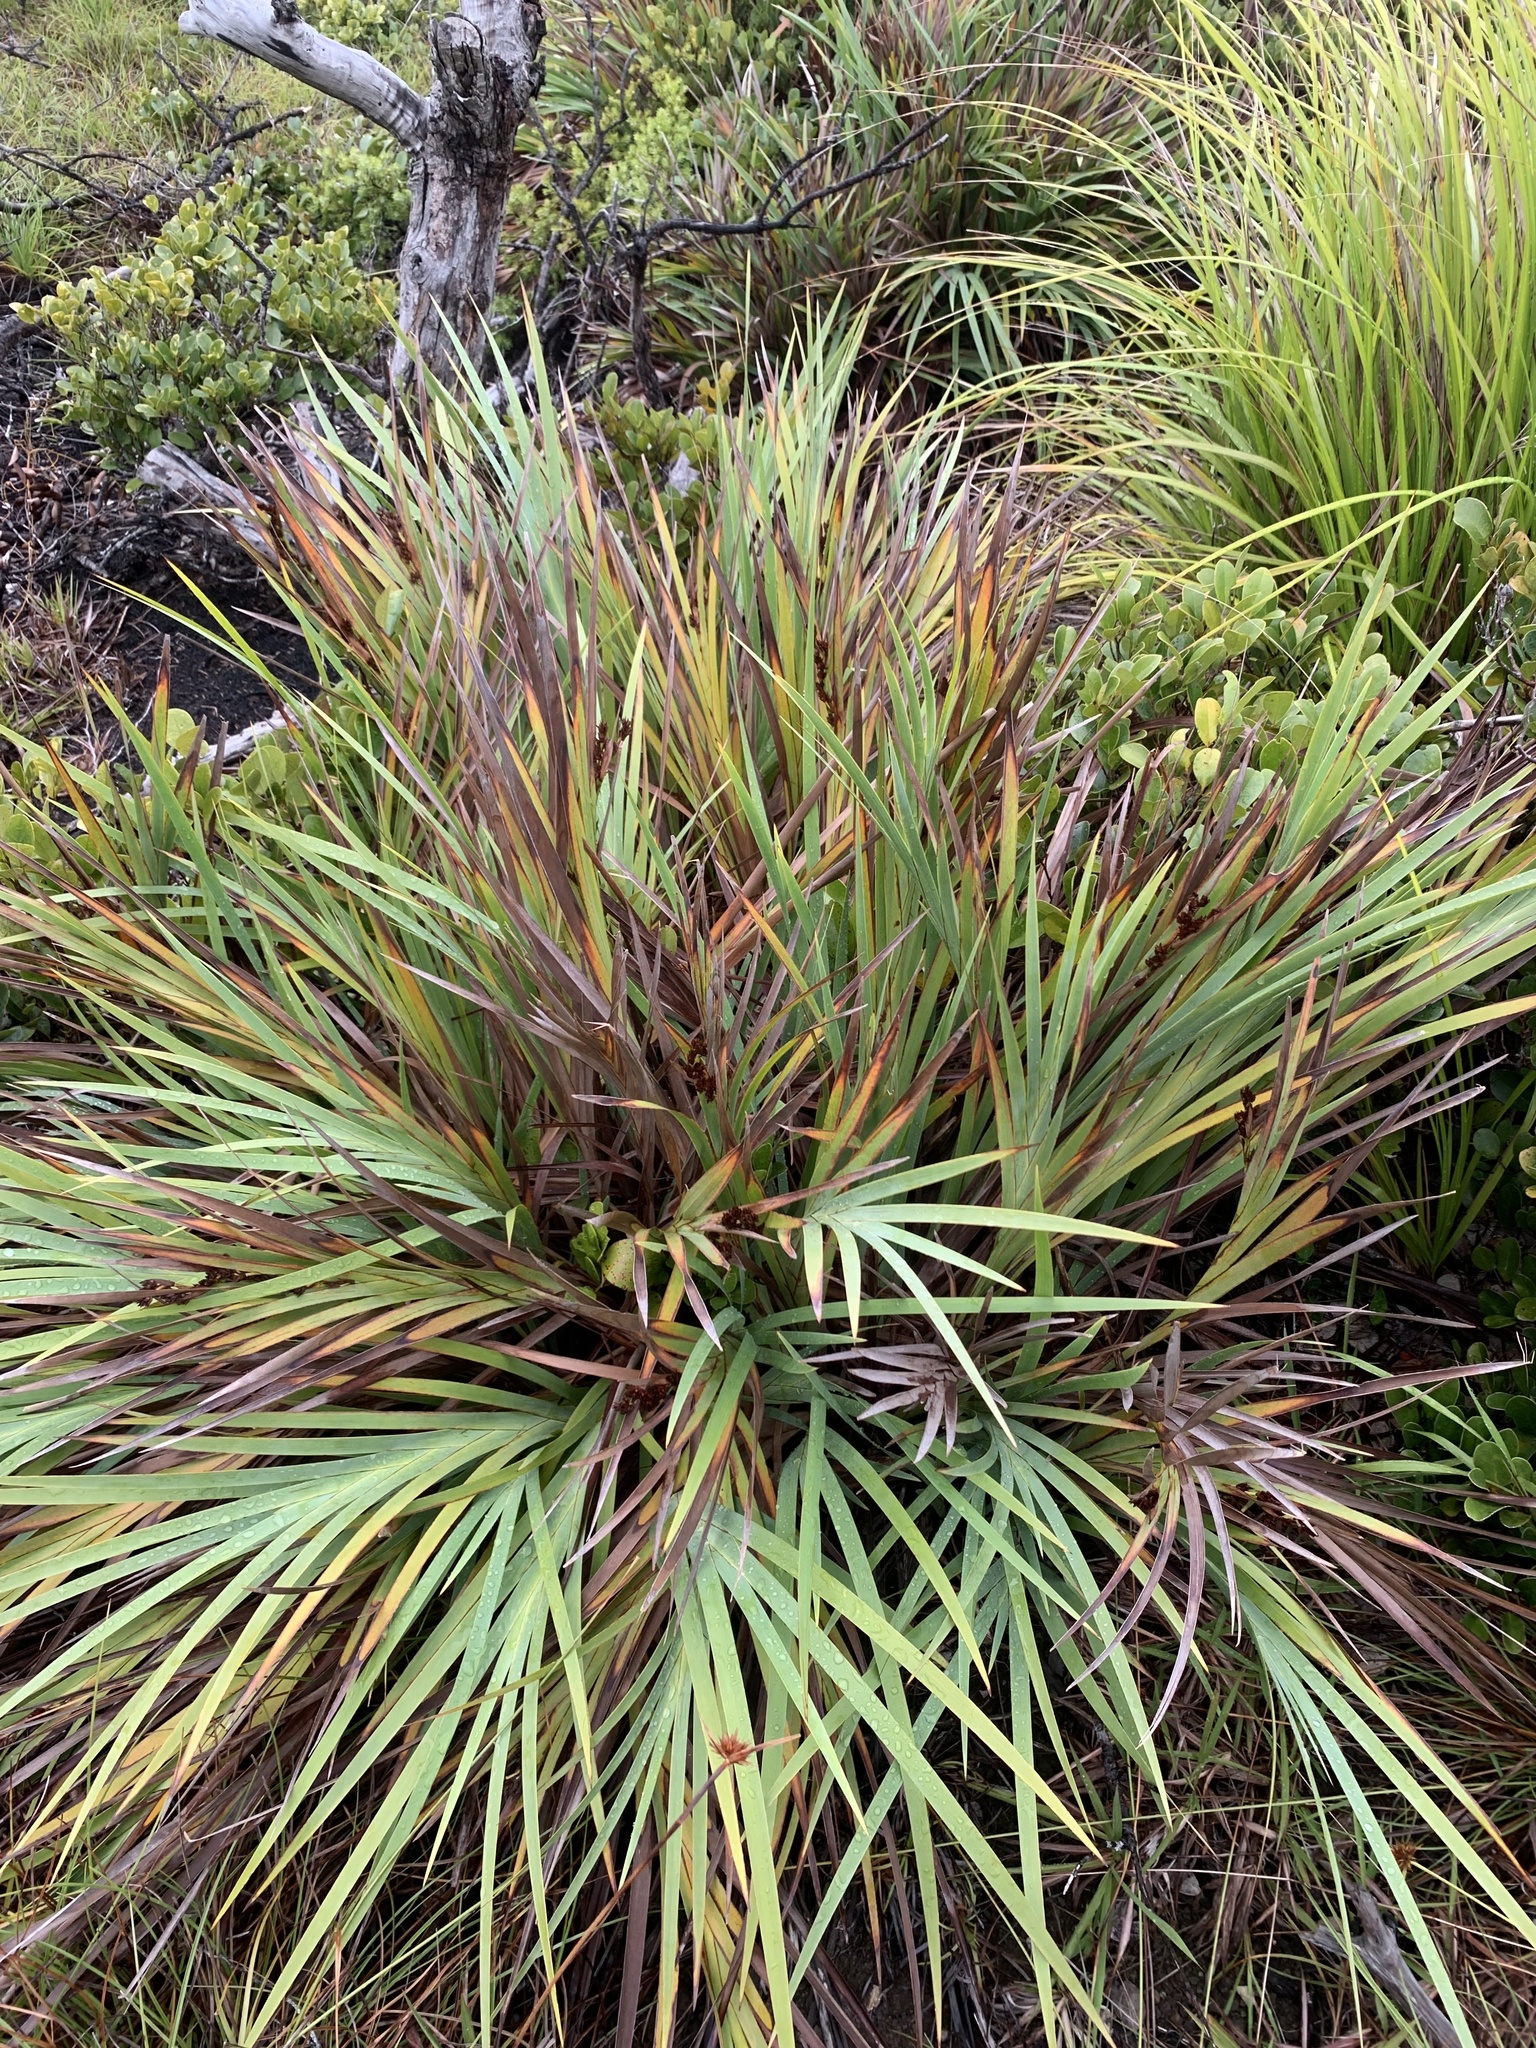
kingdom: Plantae
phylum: Tracheophyta
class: Liliopsida
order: Poales
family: Cyperaceae
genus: Machaerina
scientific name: Machaerina glomerata
